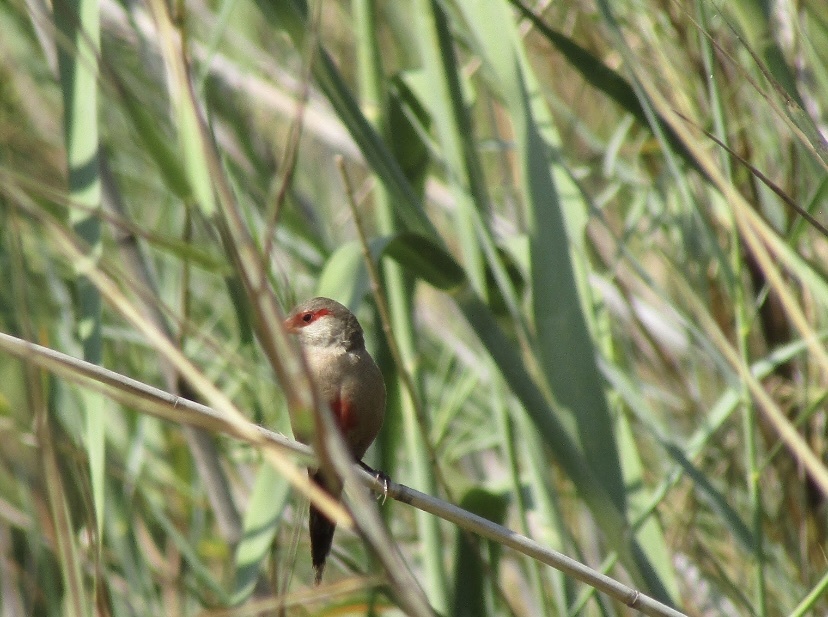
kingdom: Animalia
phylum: Chordata
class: Aves
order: Passeriformes
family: Estrildidae
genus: Estrilda
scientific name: Estrilda astrild
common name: Common waxbill
